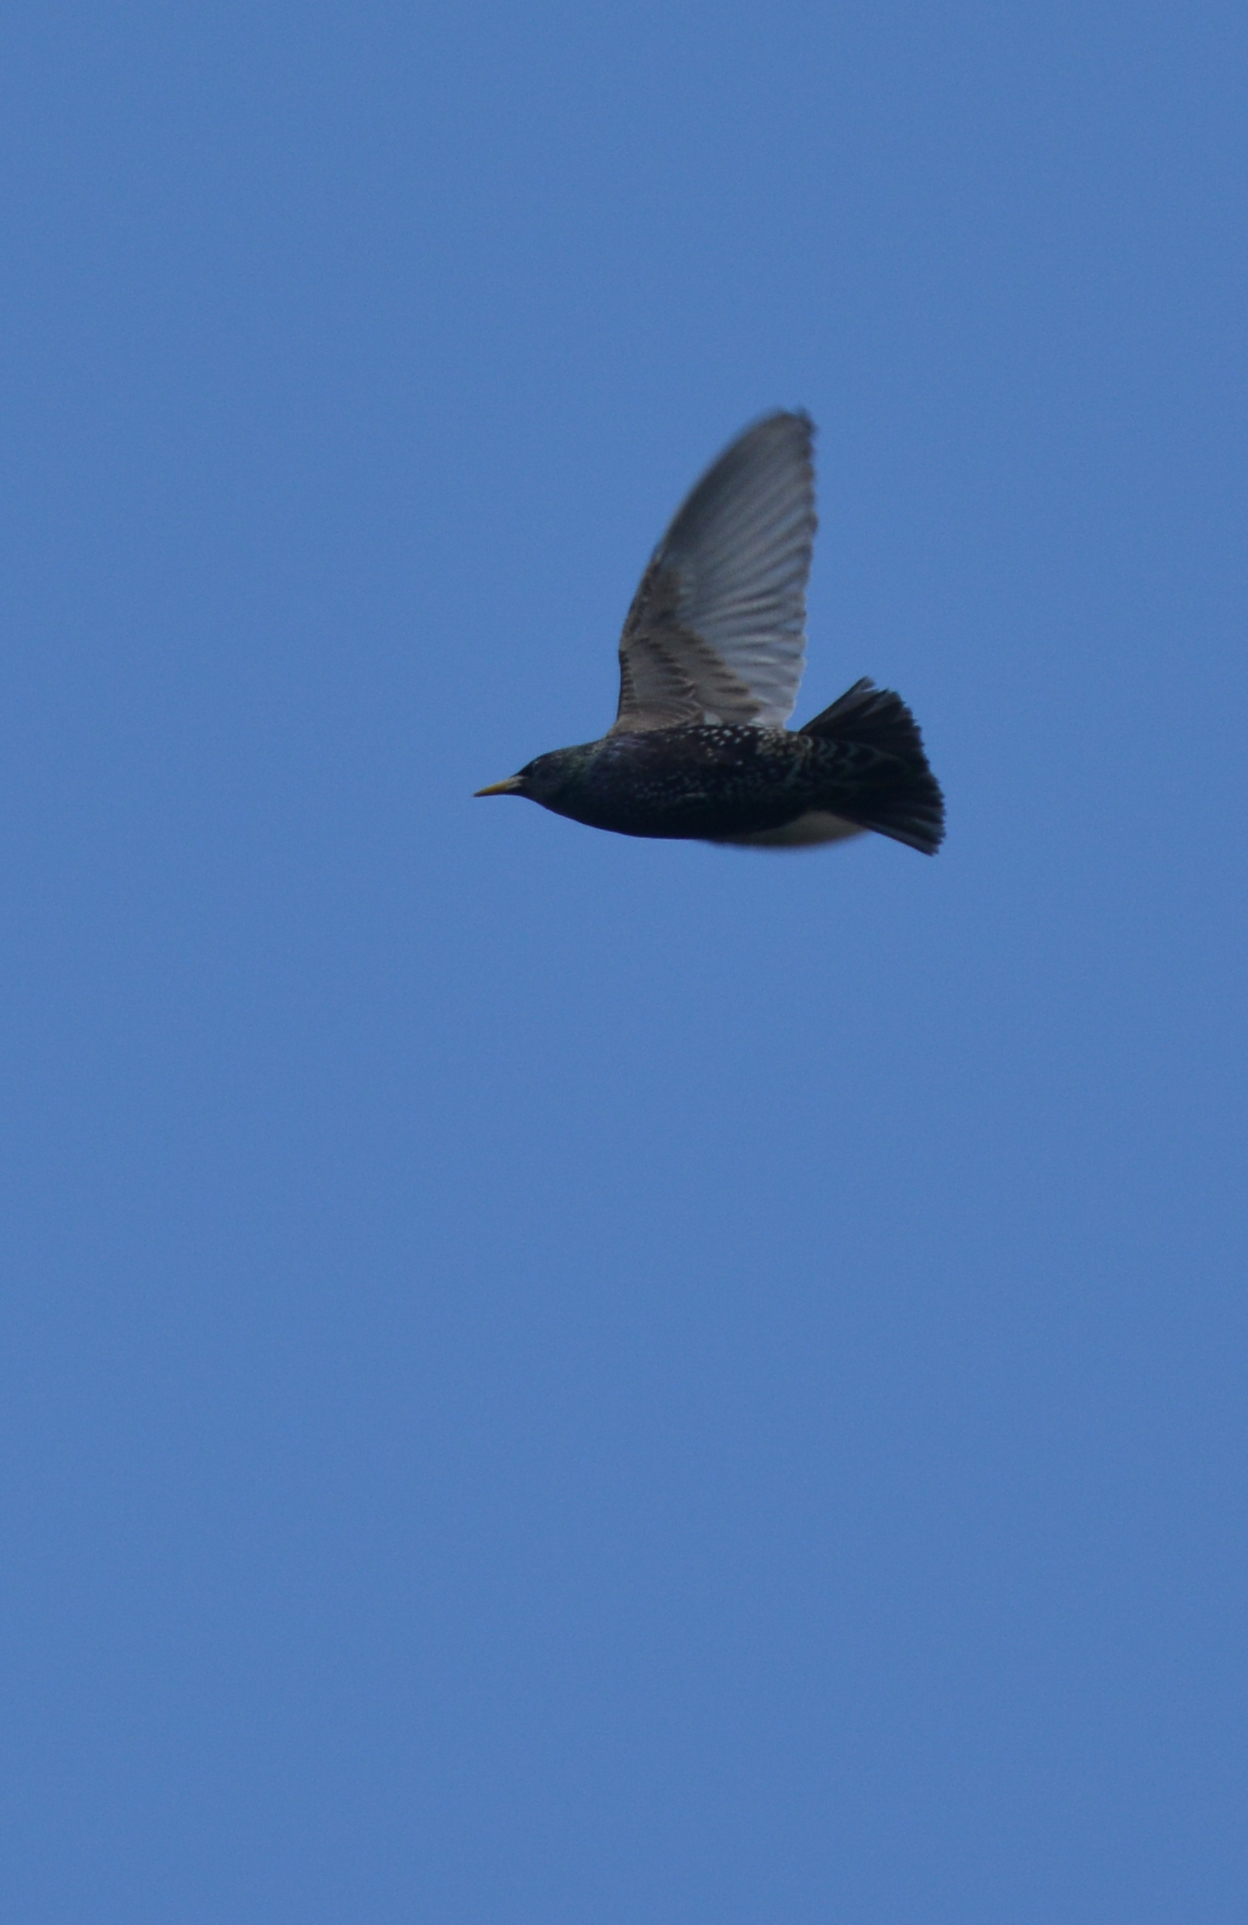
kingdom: Animalia
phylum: Chordata
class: Aves
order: Passeriformes
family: Sturnidae
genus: Sturnus
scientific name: Sturnus vulgaris
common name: Common starling
